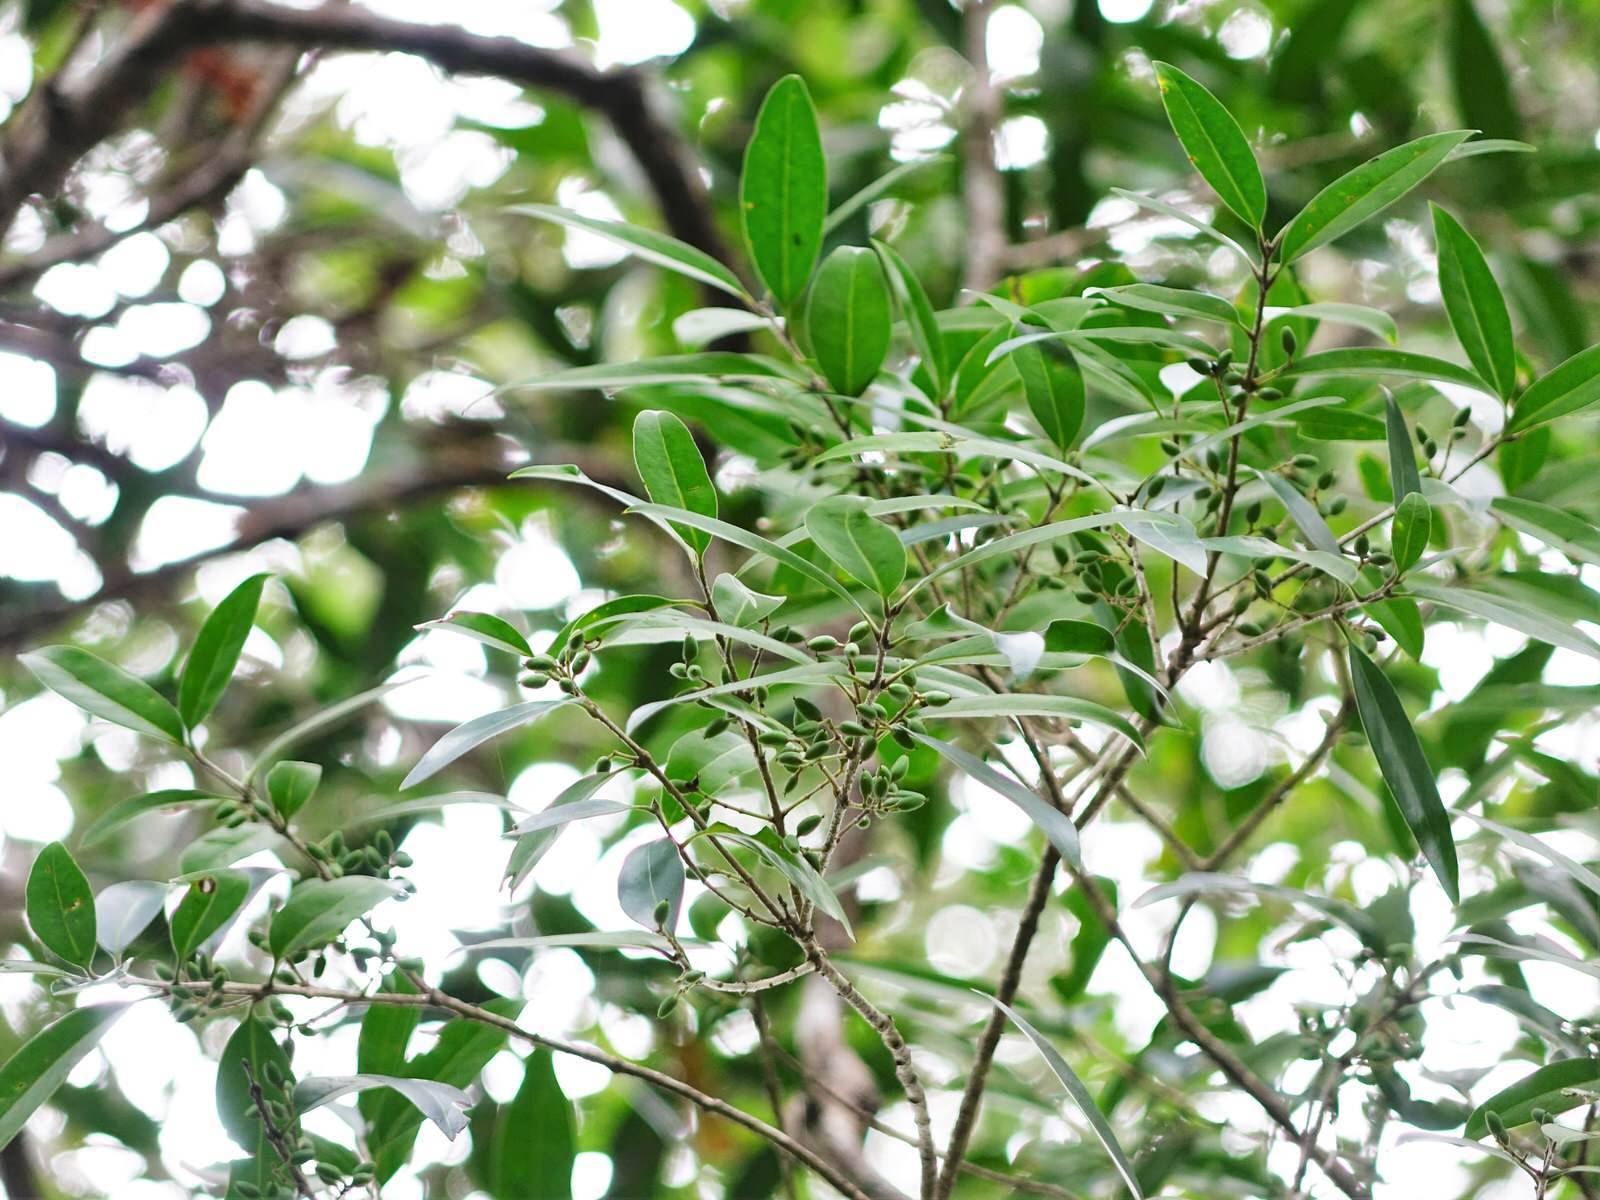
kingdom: Plantae
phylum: Tracheophyta
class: Magnoliopsida
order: Lamiales
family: Oleaceae
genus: Nestegis
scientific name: Nestegis lanceolata
